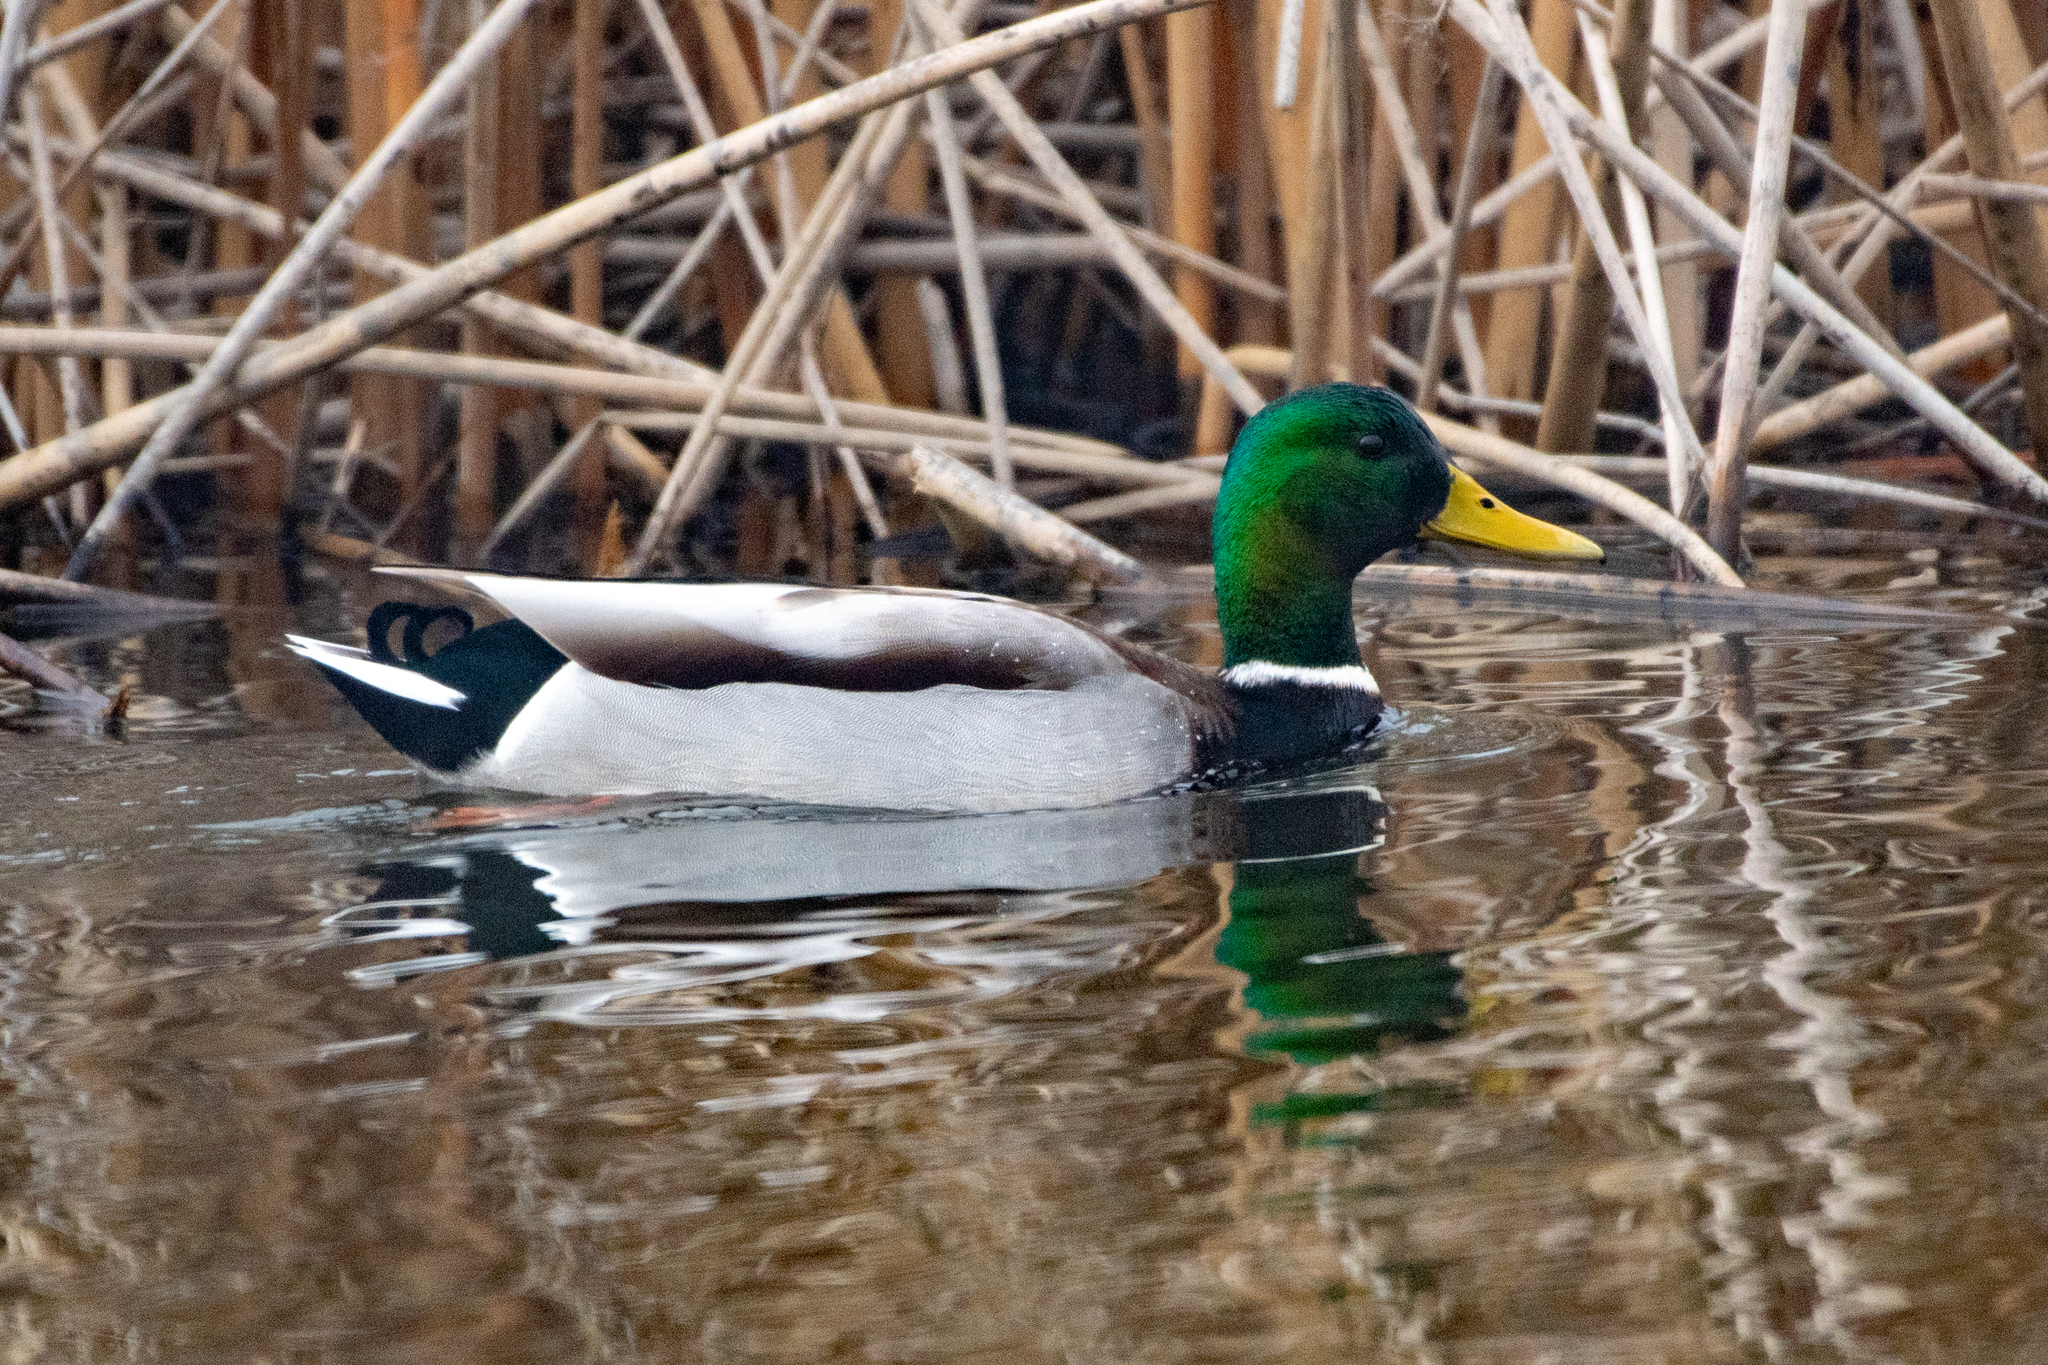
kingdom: Animalia
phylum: Chordata
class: Aves
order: Anseriformes
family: Anatidae
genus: Anas
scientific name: Anas platyrhynchos
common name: Mallard
